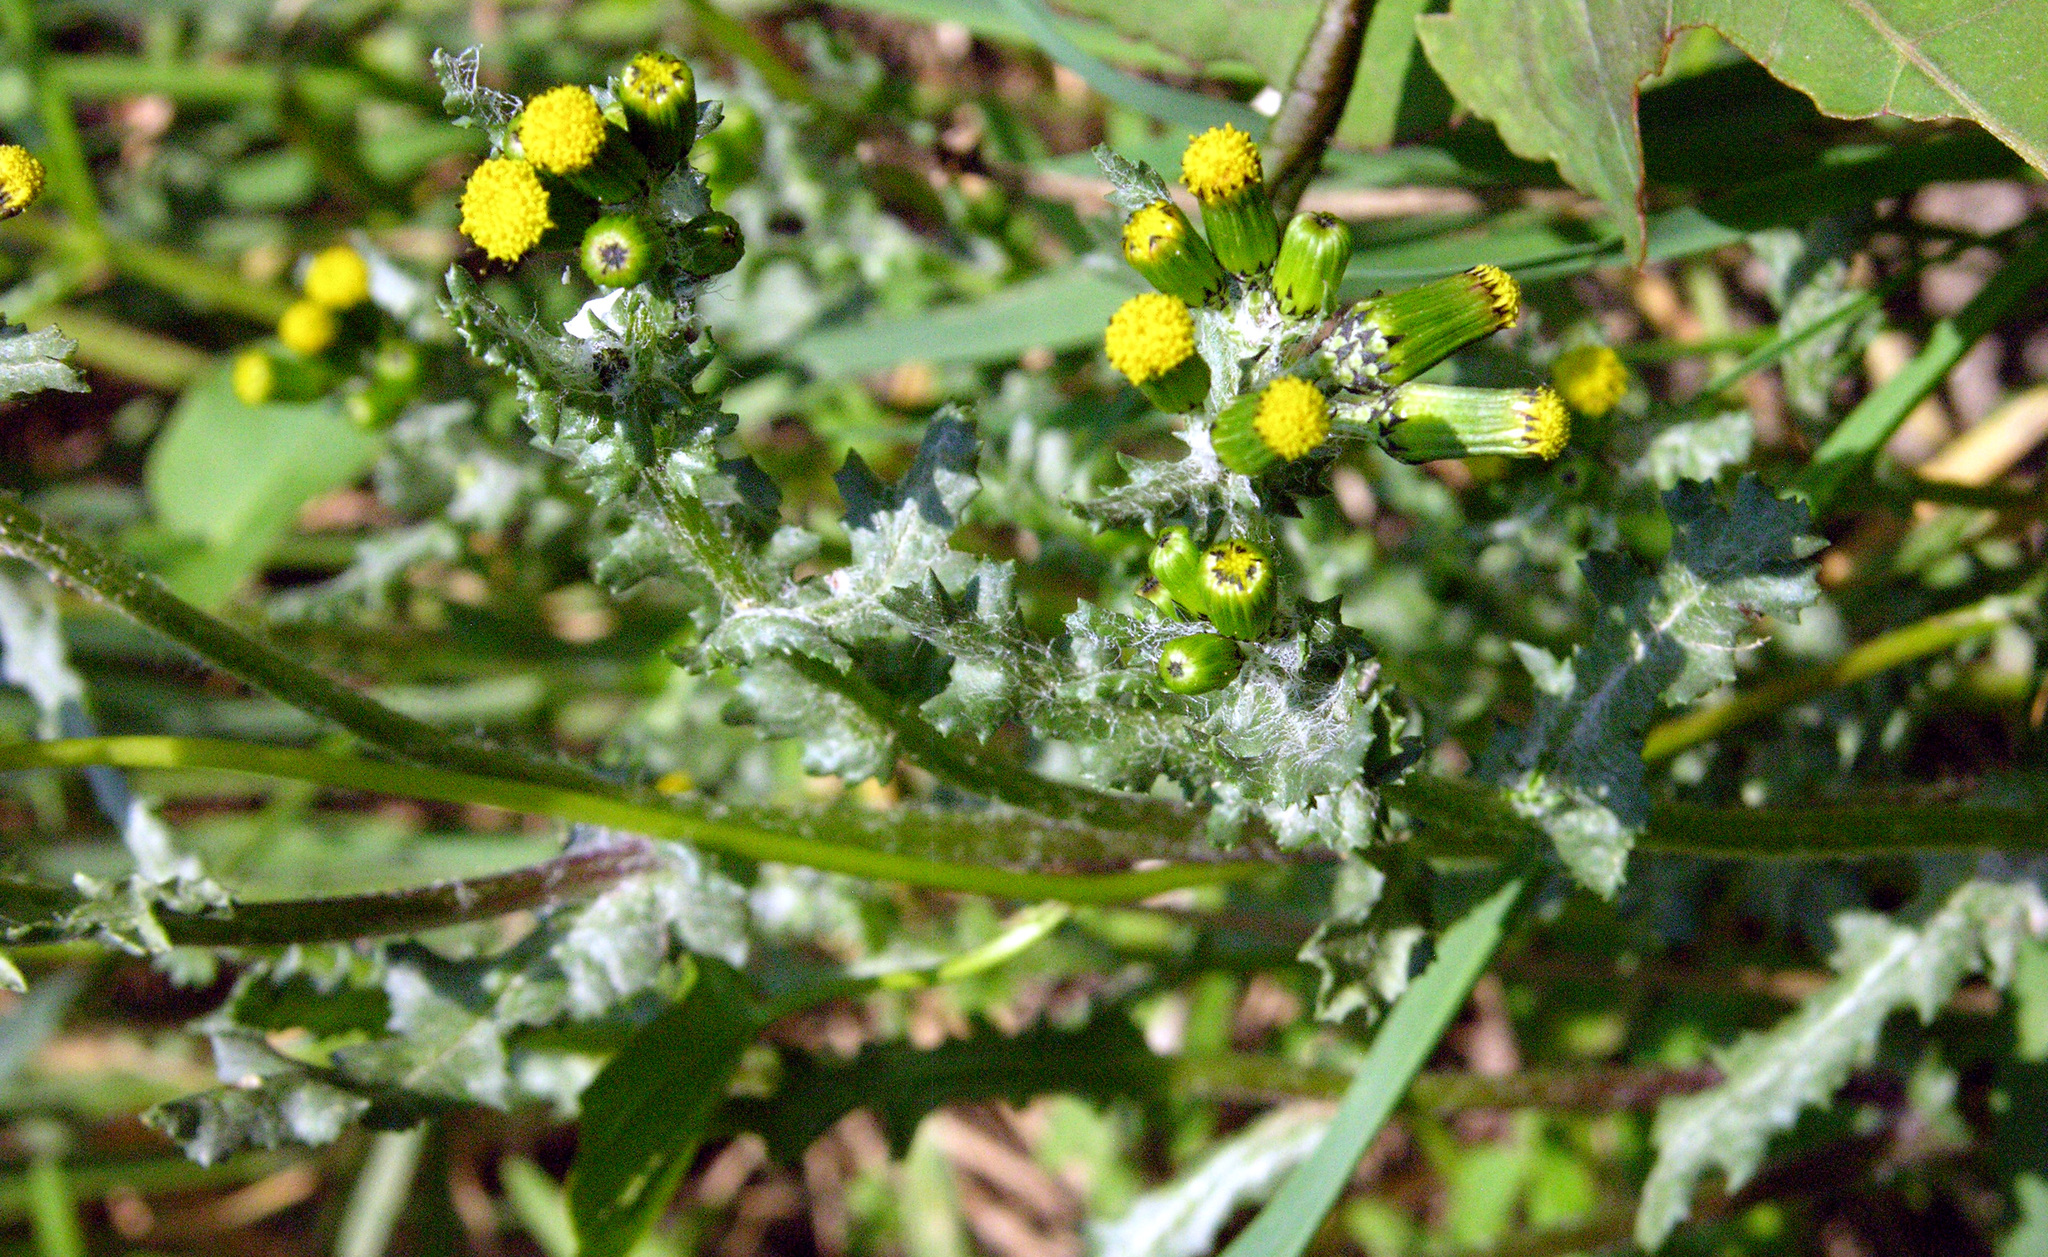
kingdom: Plantae
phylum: Tracheophyta
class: Magnoliopsida
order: Asterales
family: Asteraceae
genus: Senecio
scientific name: Senecio vulgaris
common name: Old-man-in-the-spring
